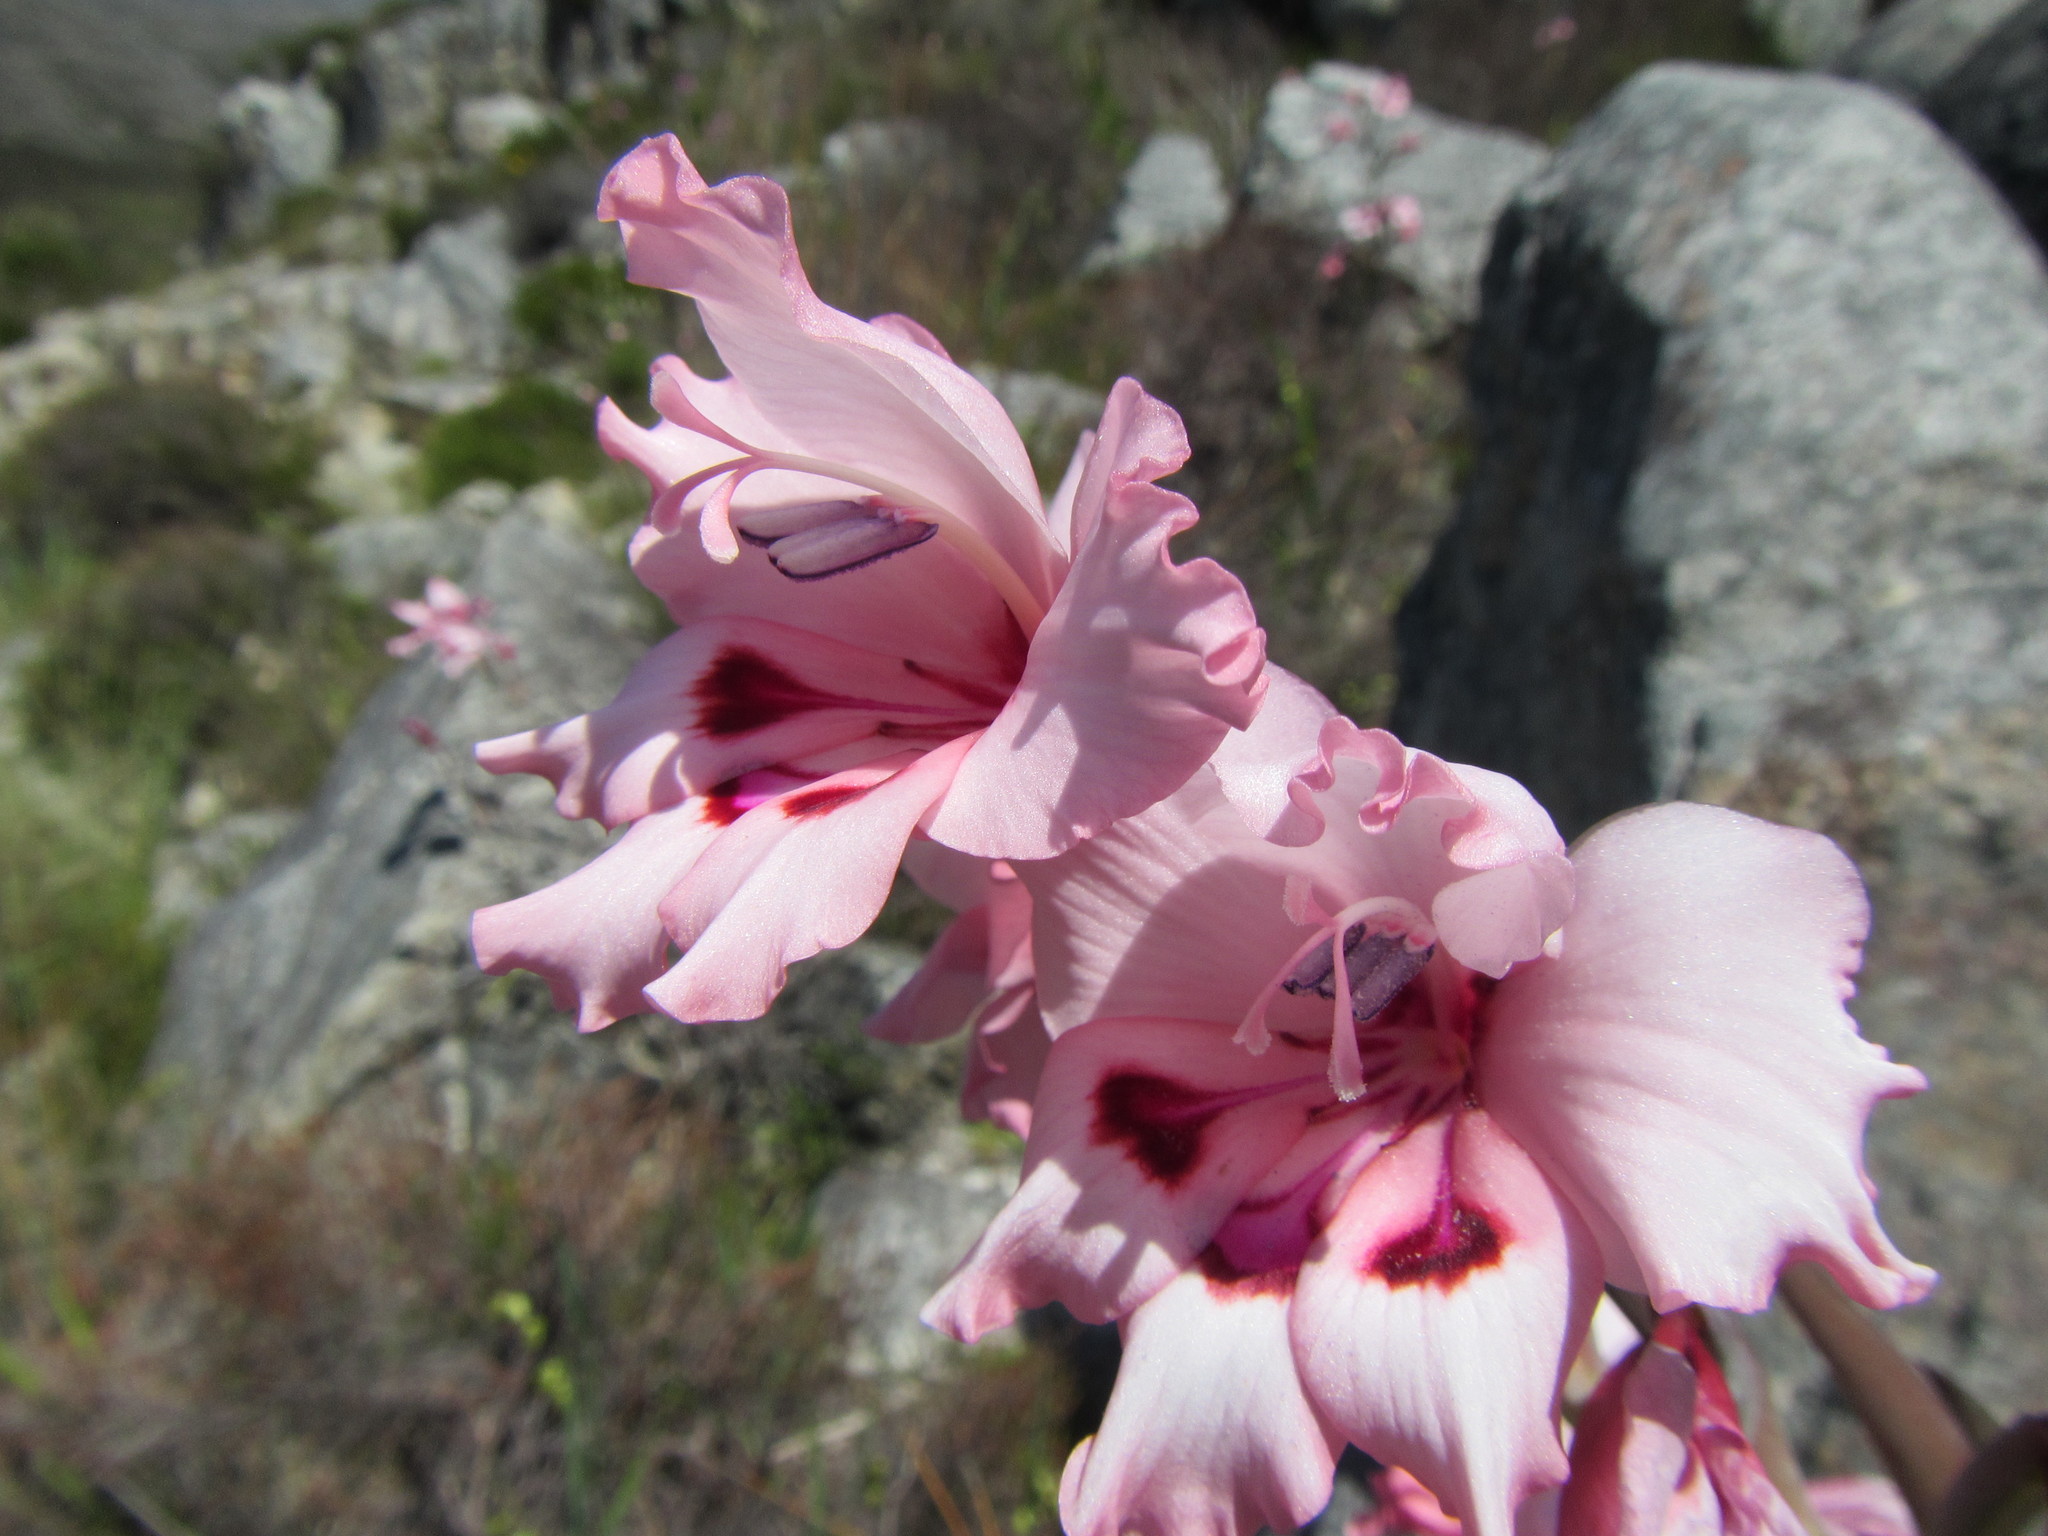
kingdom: Plantae
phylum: Tracheophyta
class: Liliopsida
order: Asparagales
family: Iridaceae
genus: Gladiolus
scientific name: Gladiolus carneus
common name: Painted-lady
